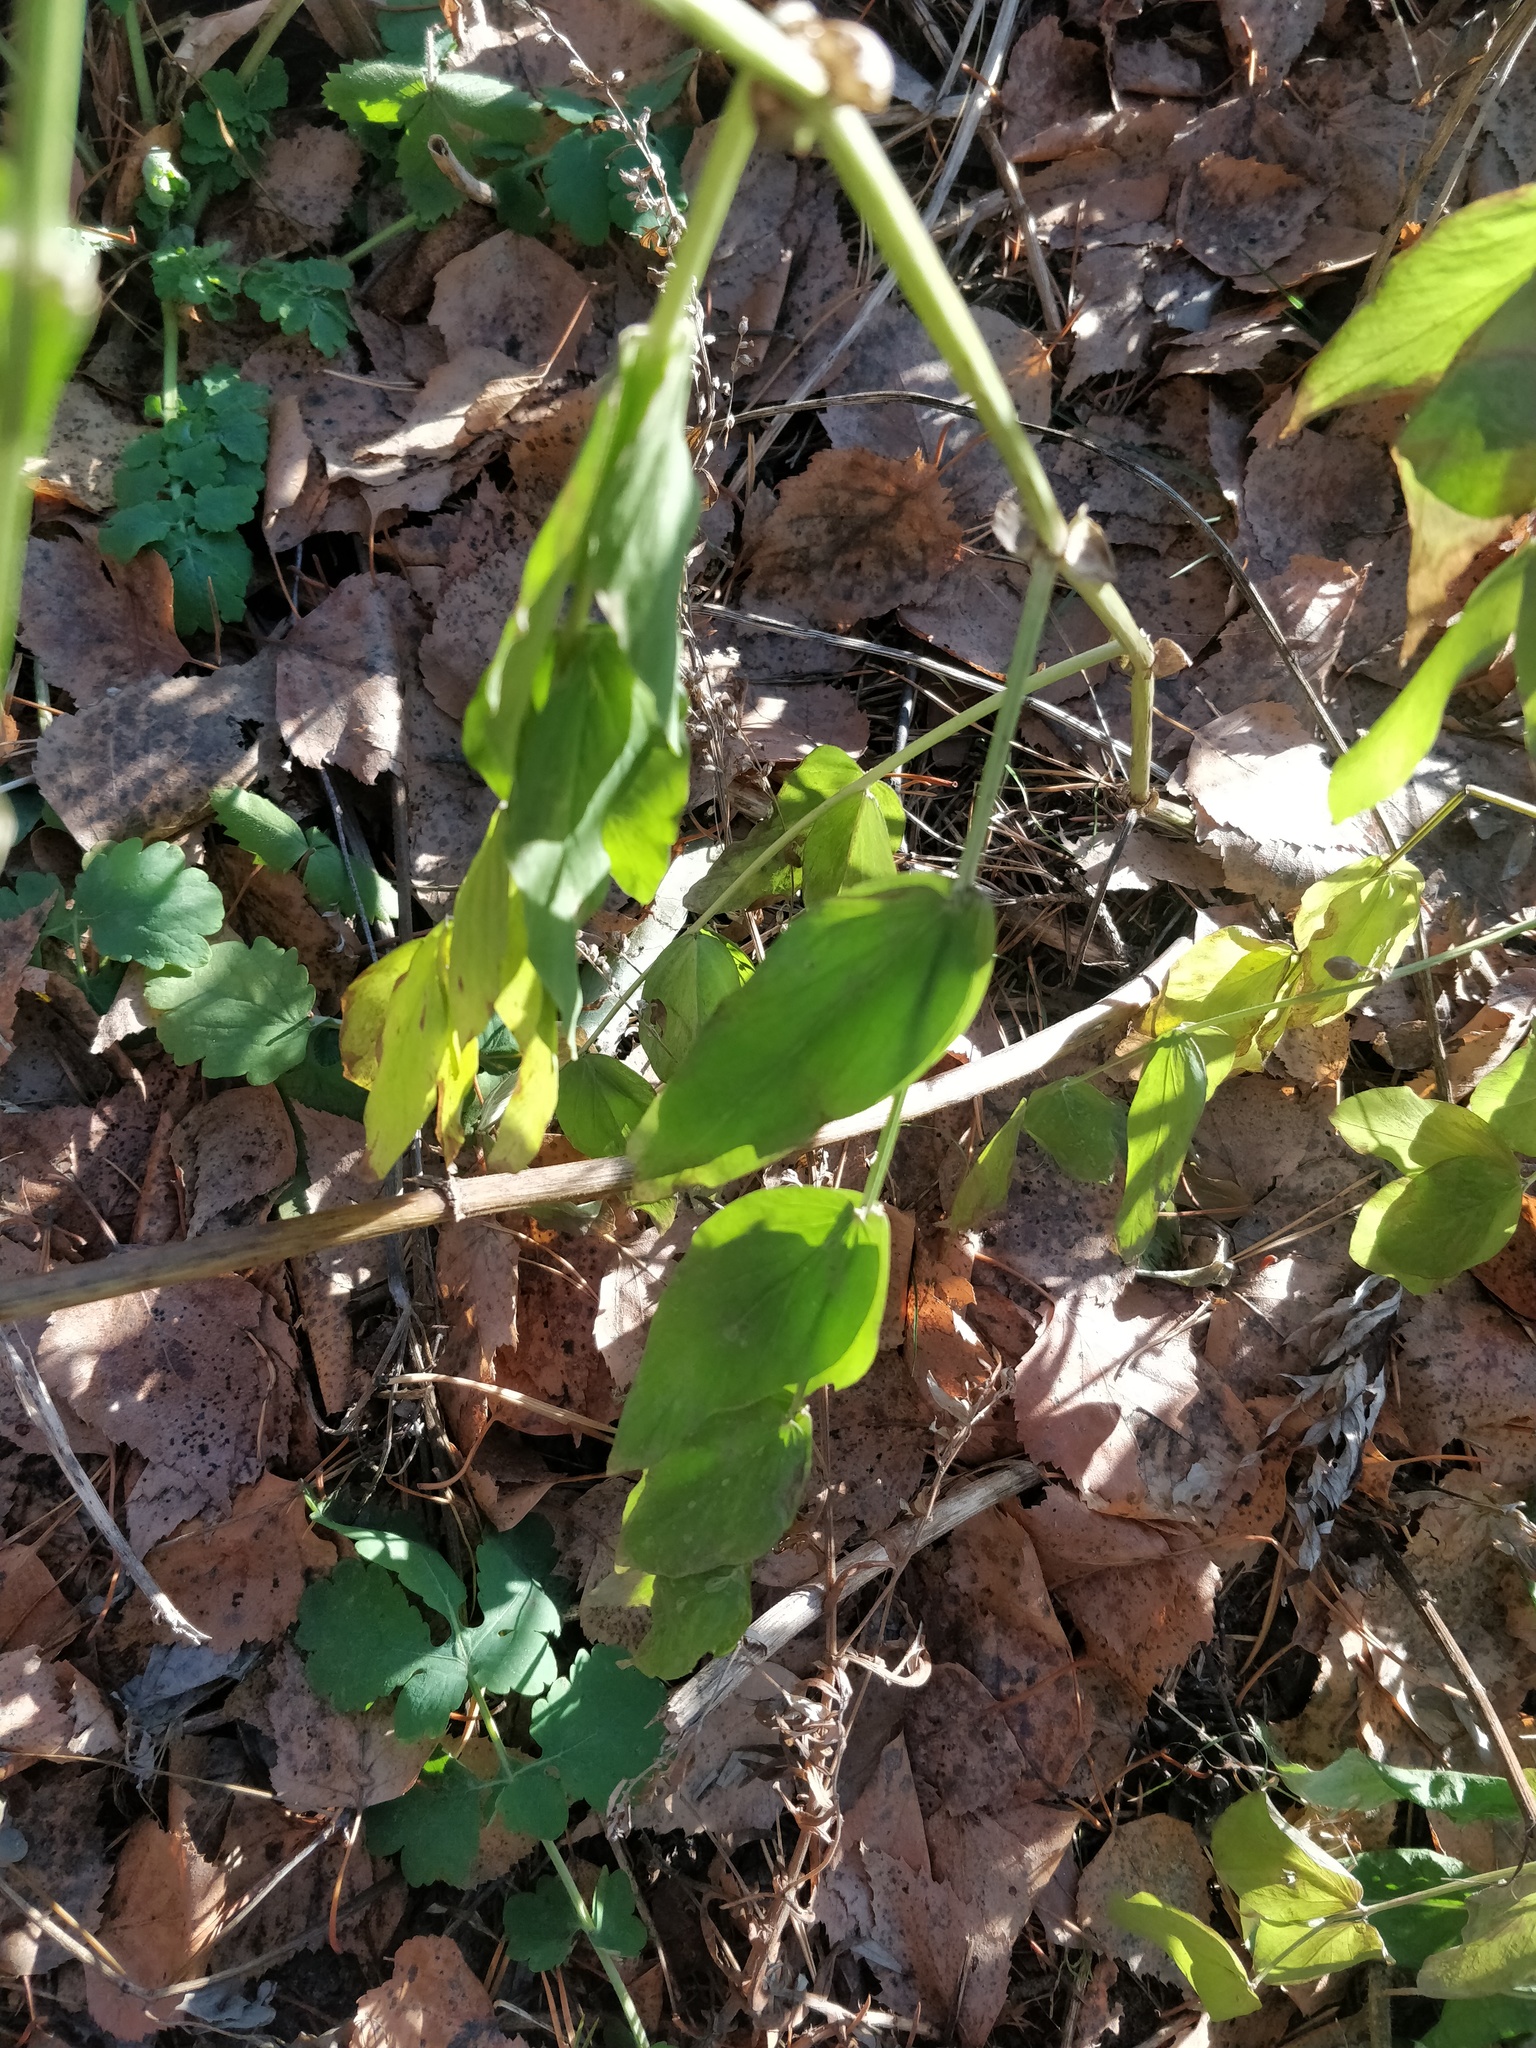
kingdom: Plantae
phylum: Tracheophyta
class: Magnoliopsida
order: Fabales
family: Fabaceae
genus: Lathyrus
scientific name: Lathyrus vernus
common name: Spring pea
